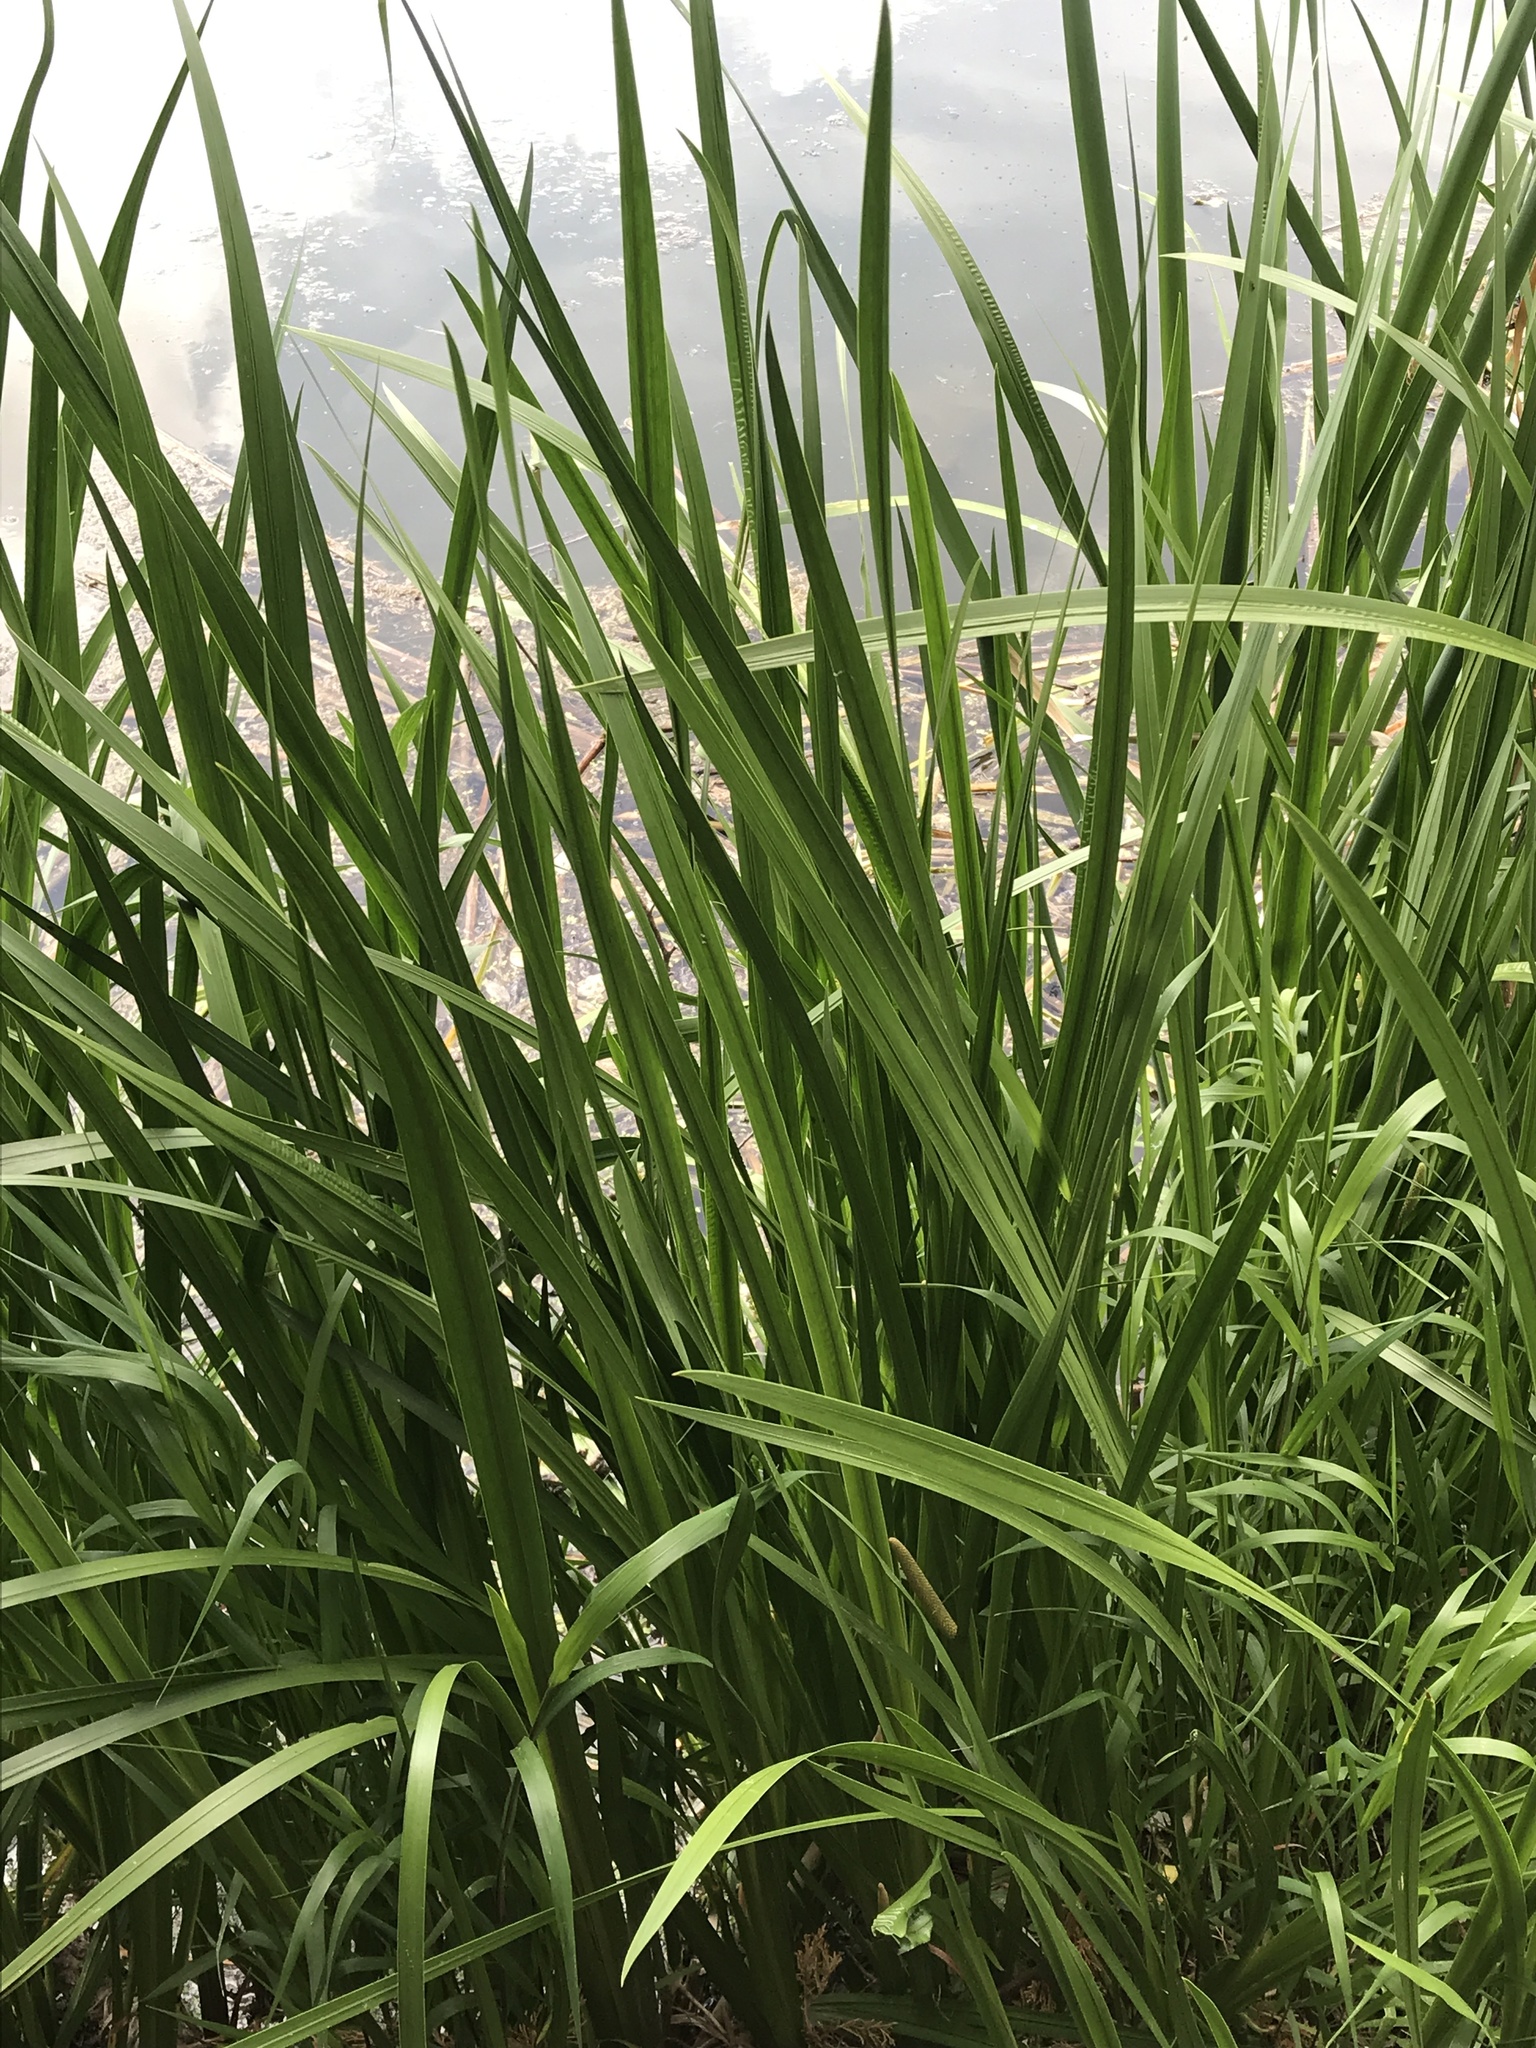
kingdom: Plantae
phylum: Tracheophyta
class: Liliopsida
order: Acorales
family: Acoraceae
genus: Acorus
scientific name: Acorus calamus
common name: Sweet-flag
